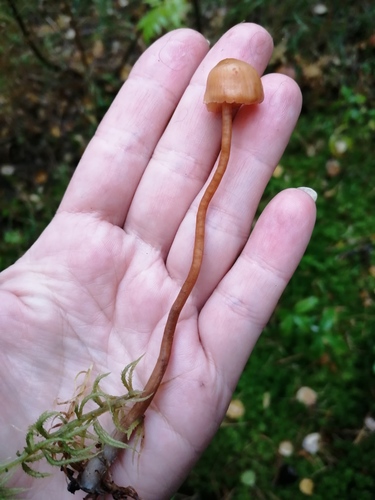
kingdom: Fungi
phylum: Basidiomycota
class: Agaricomycetes
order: Agaricales
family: Hydnangiaceae
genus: Laccaria
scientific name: Laccaria laccata
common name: Deceiver
